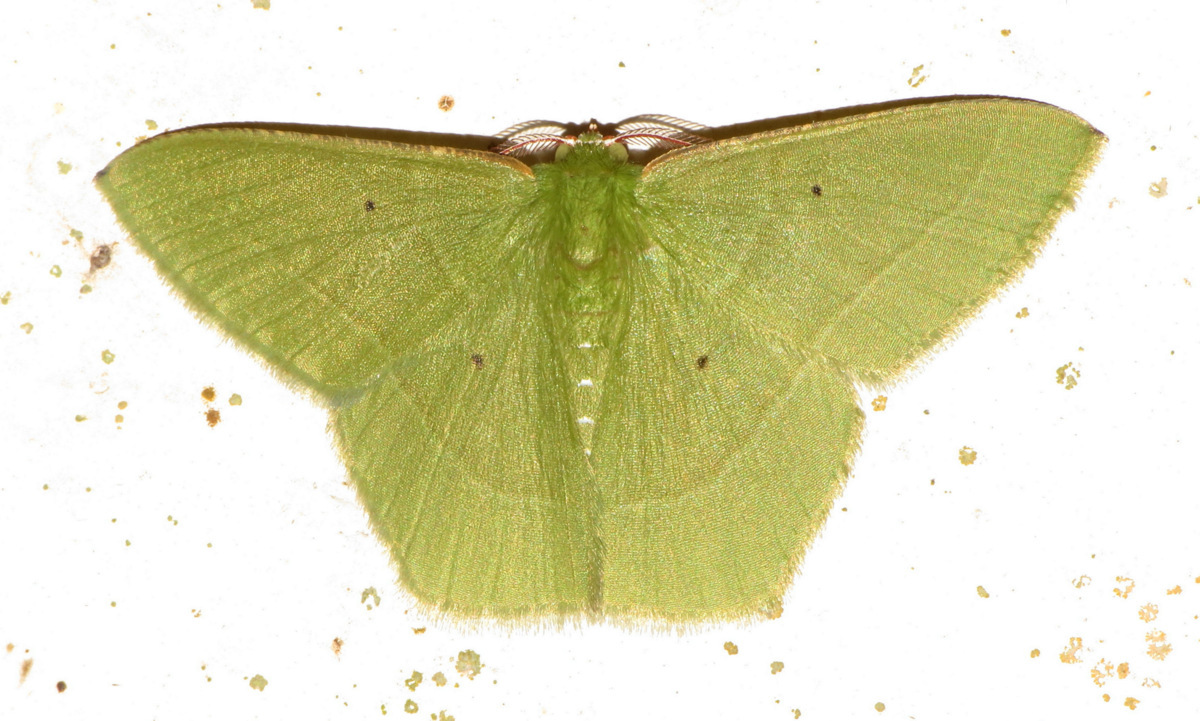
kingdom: Animalia
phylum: Arthropoda
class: Insecta
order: Lepidoptera
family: Geometridae
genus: Phrudocentra
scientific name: Phrudocentra pupillata
